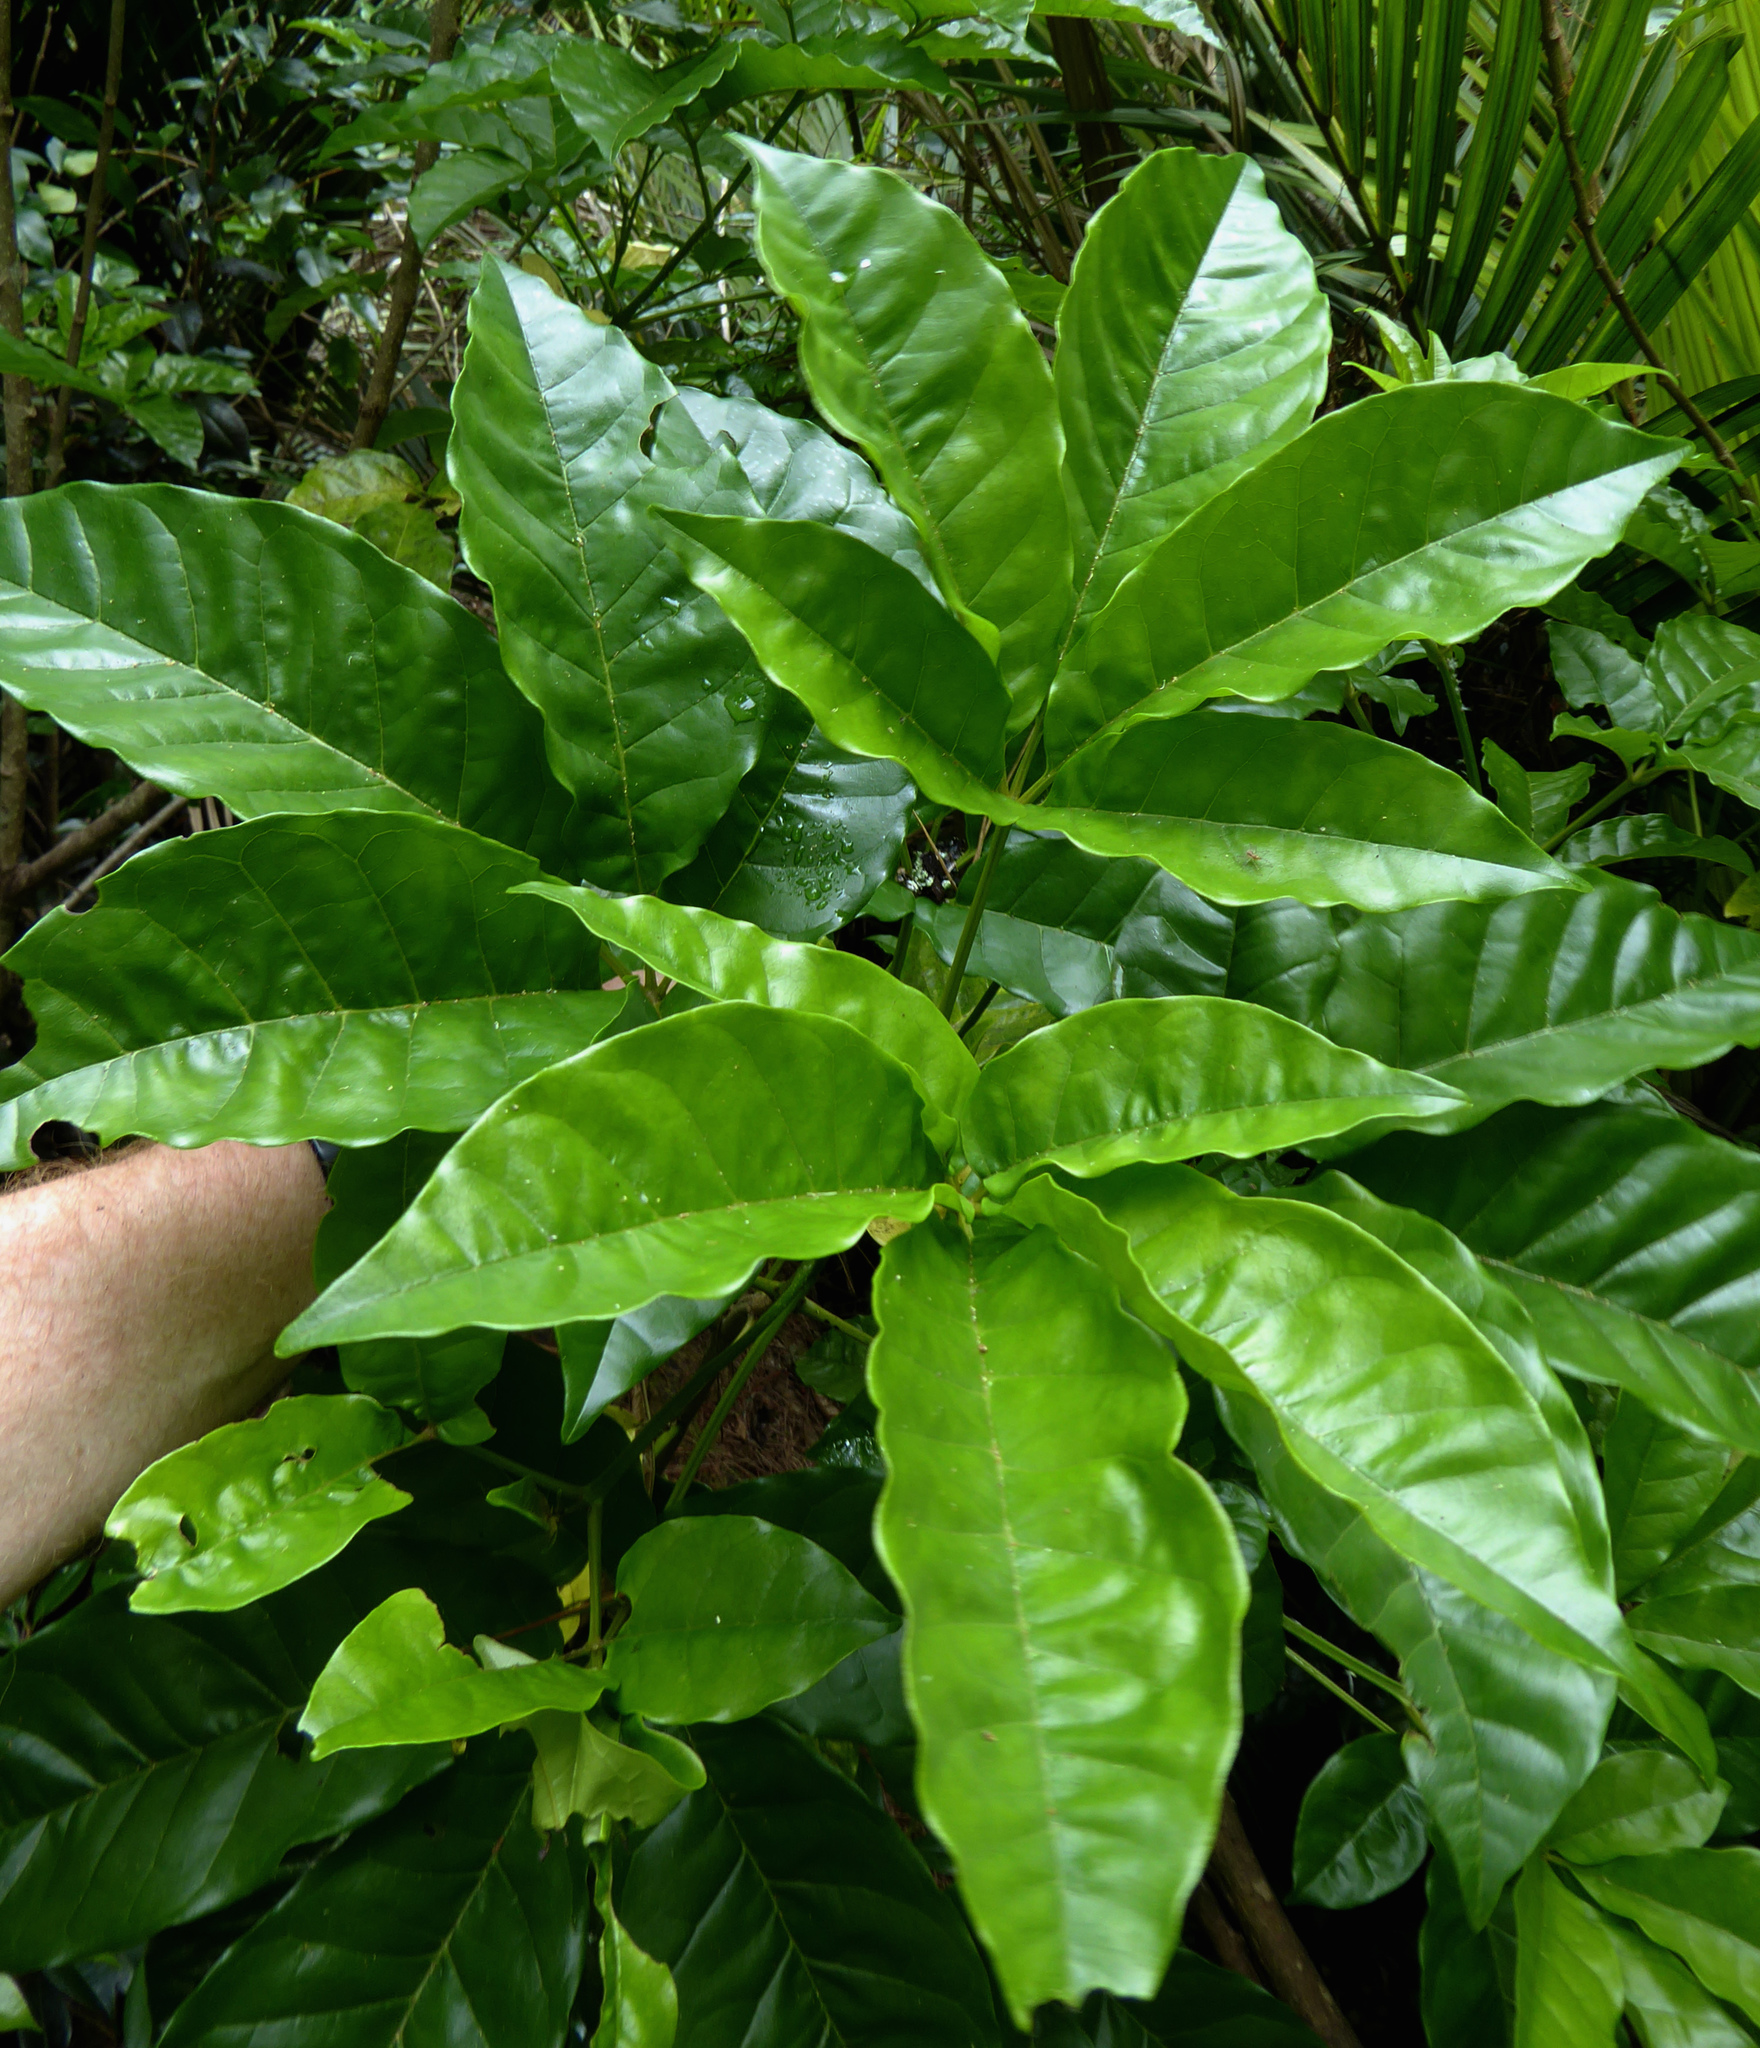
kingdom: Plantae
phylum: Tracheophyta
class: Magnoliopsida
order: Lamiales
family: Lamiaceae
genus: Vitex
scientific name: Vitex lucens
